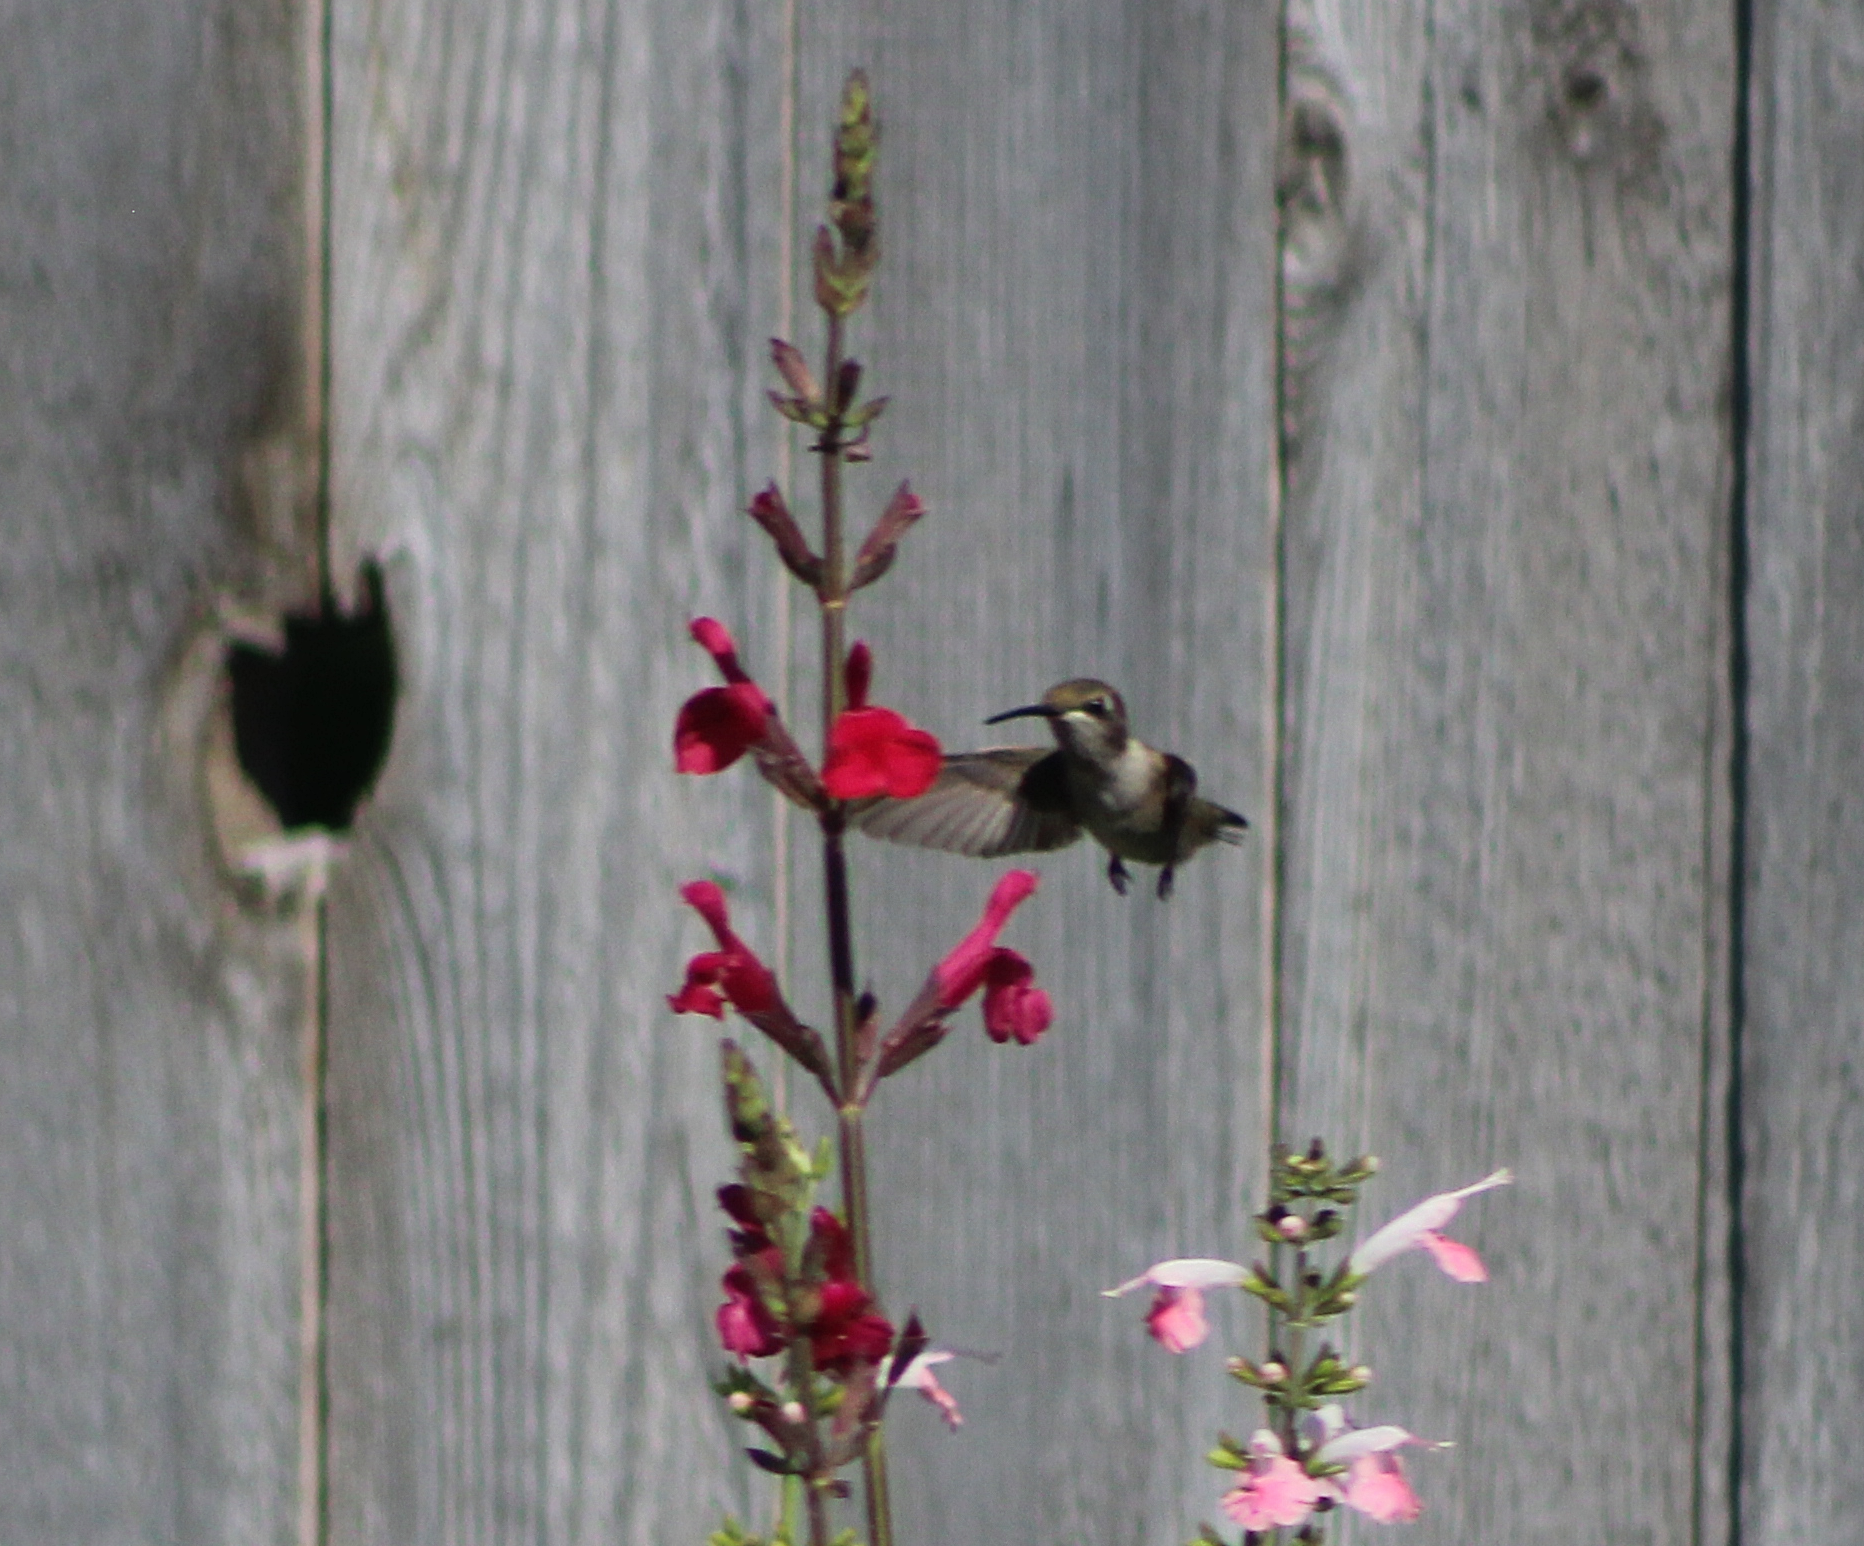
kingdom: Animalia
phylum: Chordata
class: Aves
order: Apodiformes
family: Trochilidae
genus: Archilochus
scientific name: Archilochus alexandri
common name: Black-chinned hummingbird
